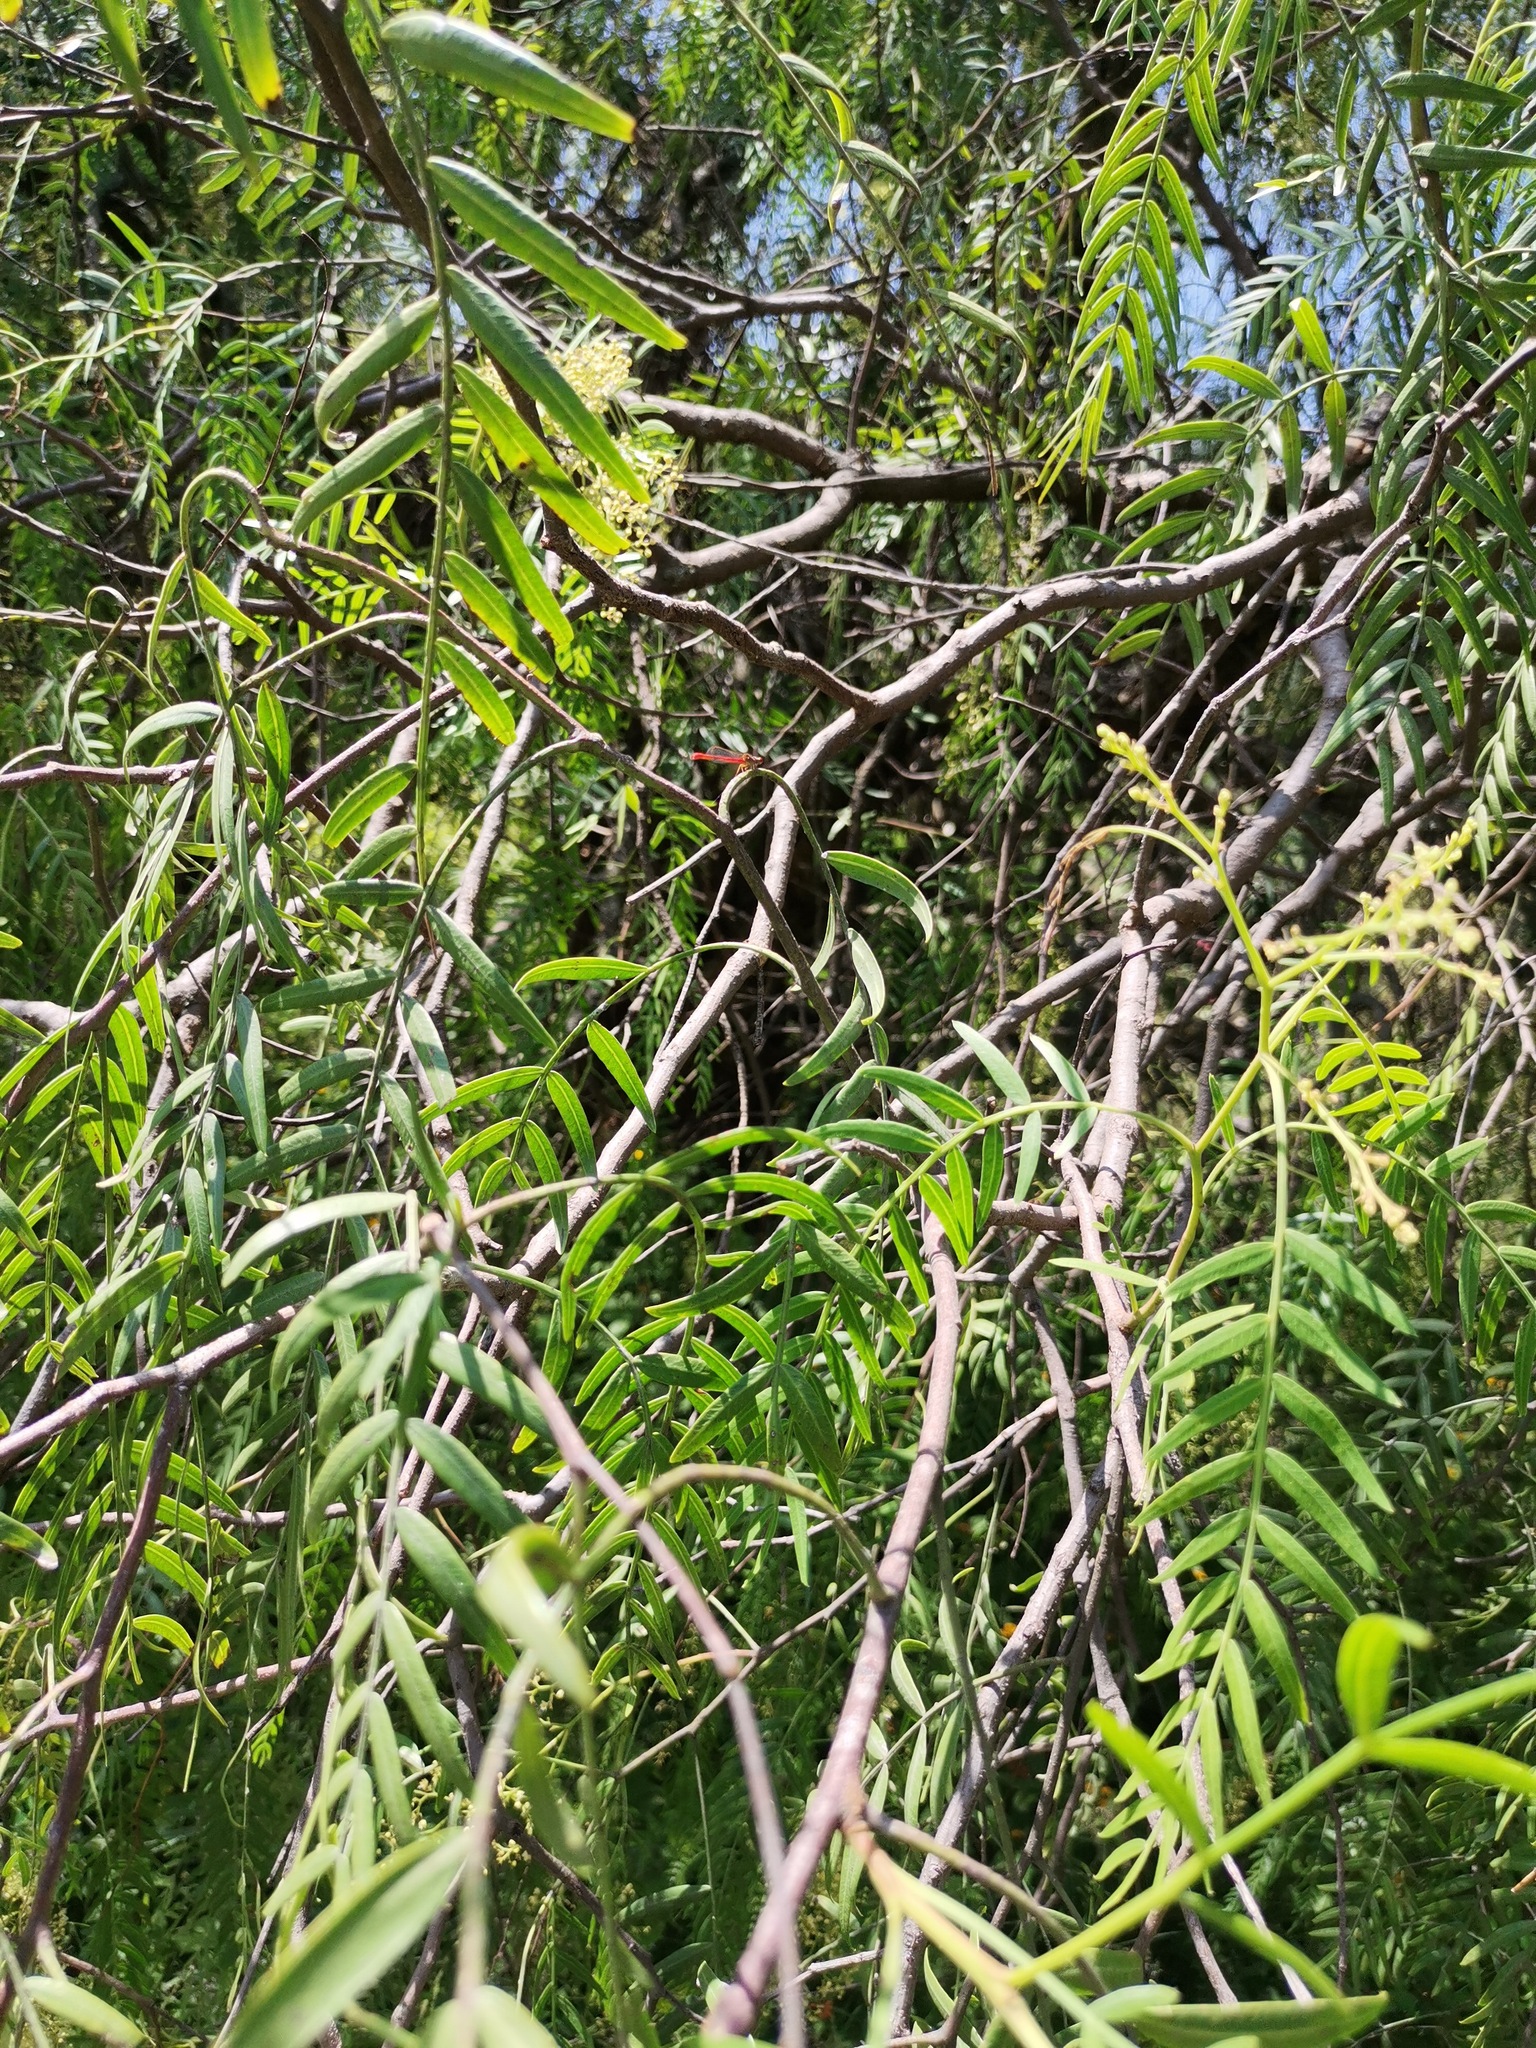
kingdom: Plantae
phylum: Tracheophyta
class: Magnoliopsida
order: Sapindales
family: Anacardiaceae
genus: Schinus
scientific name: Schinus molle
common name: Peruvian peppertree
